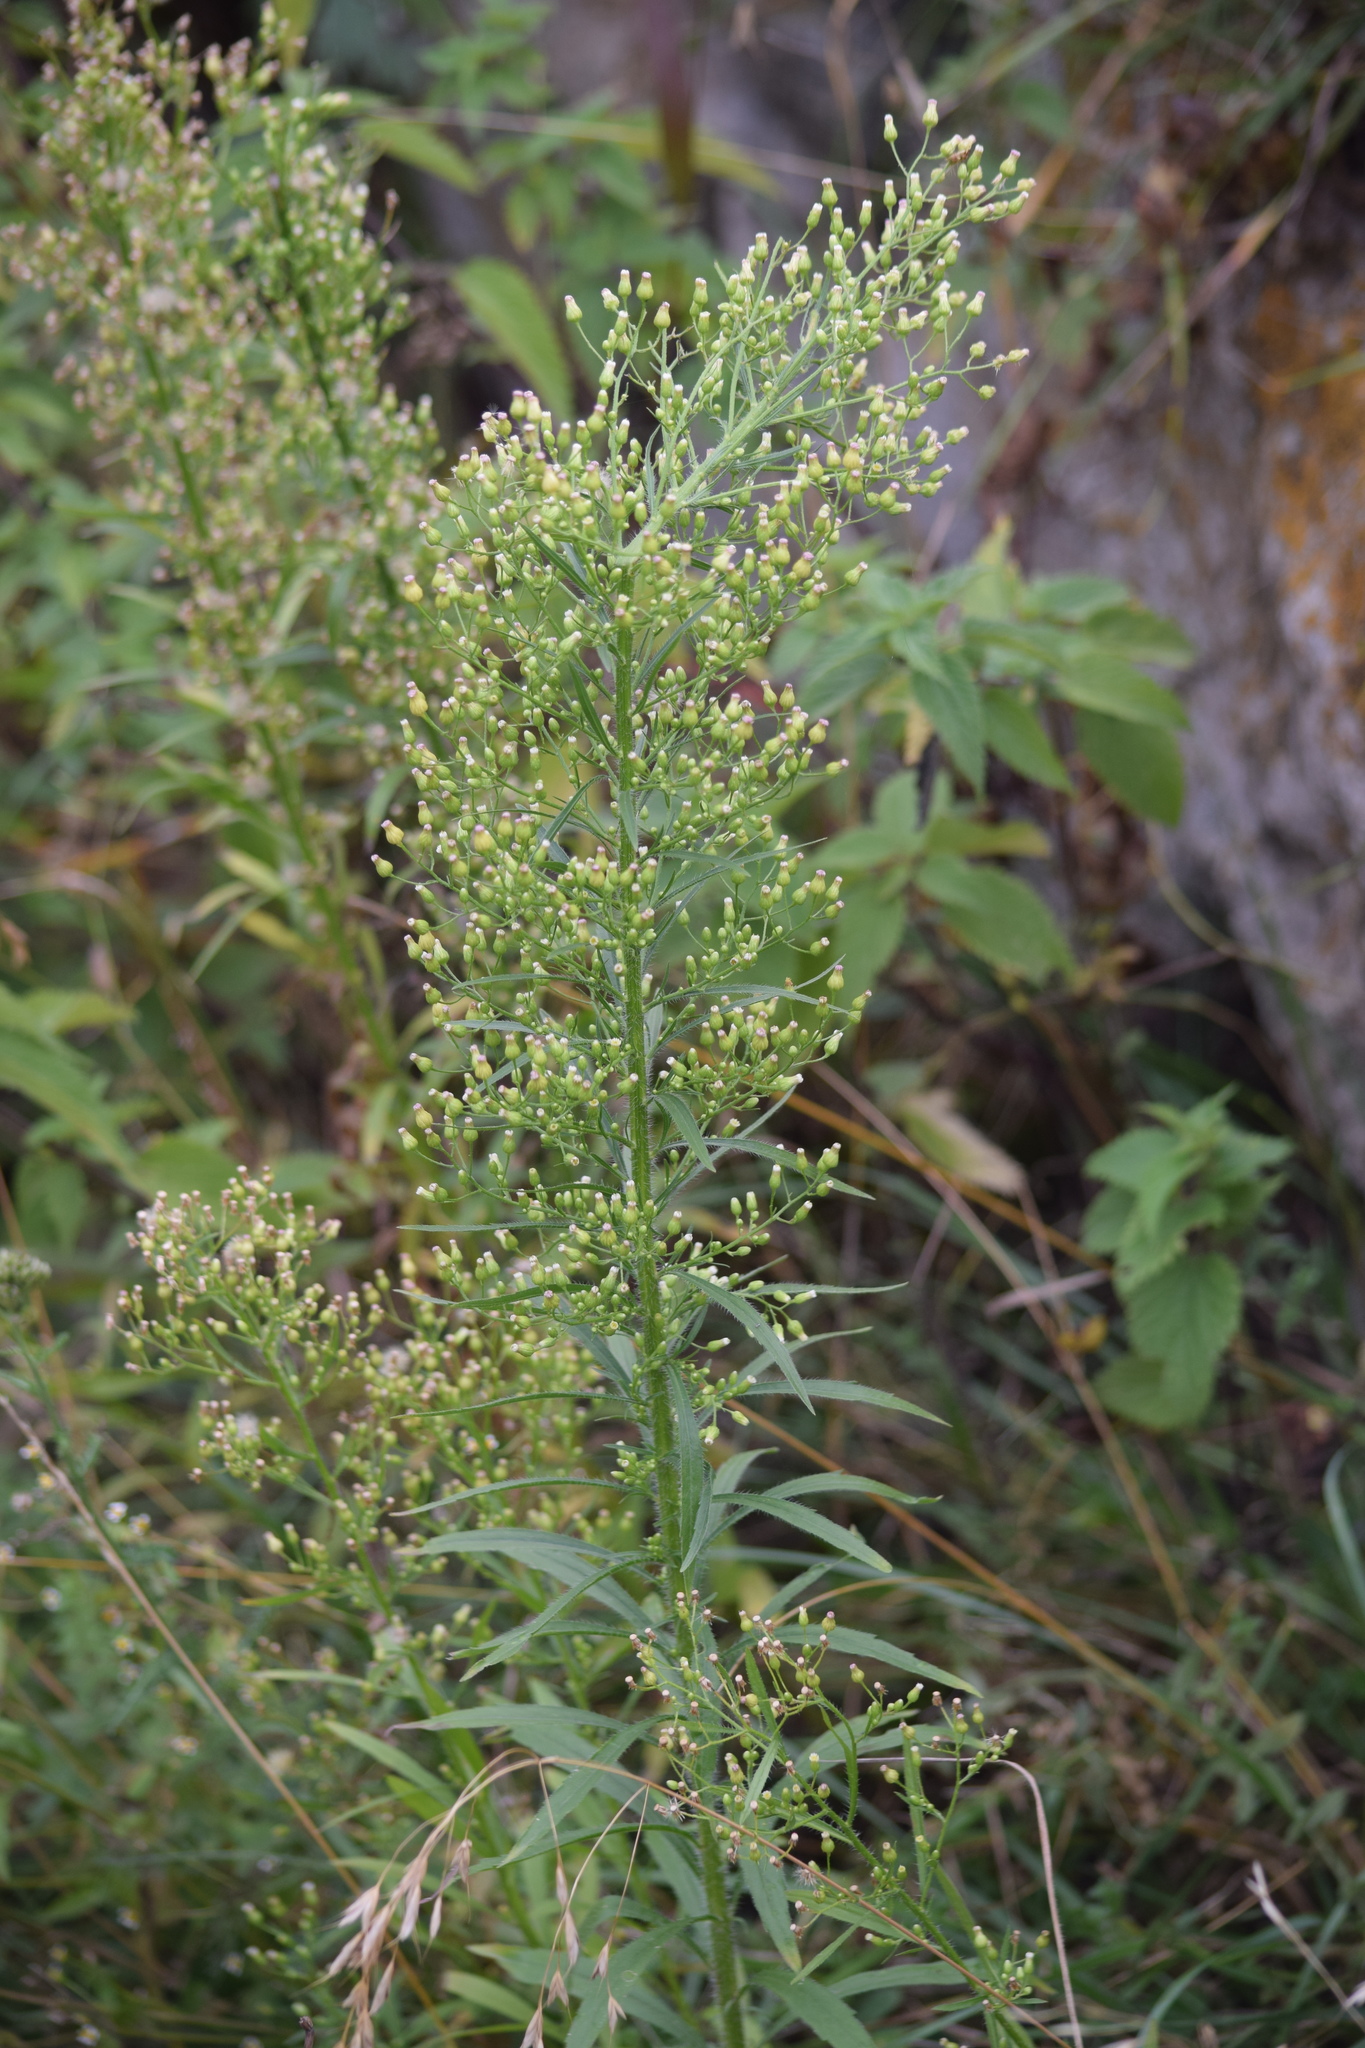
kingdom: Plantae
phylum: Tracheophyta
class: Magnoliopsida
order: Asterales
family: Asteraceae
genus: Erigeron
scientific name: Erigeron canadensis
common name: Canadian fleabane
